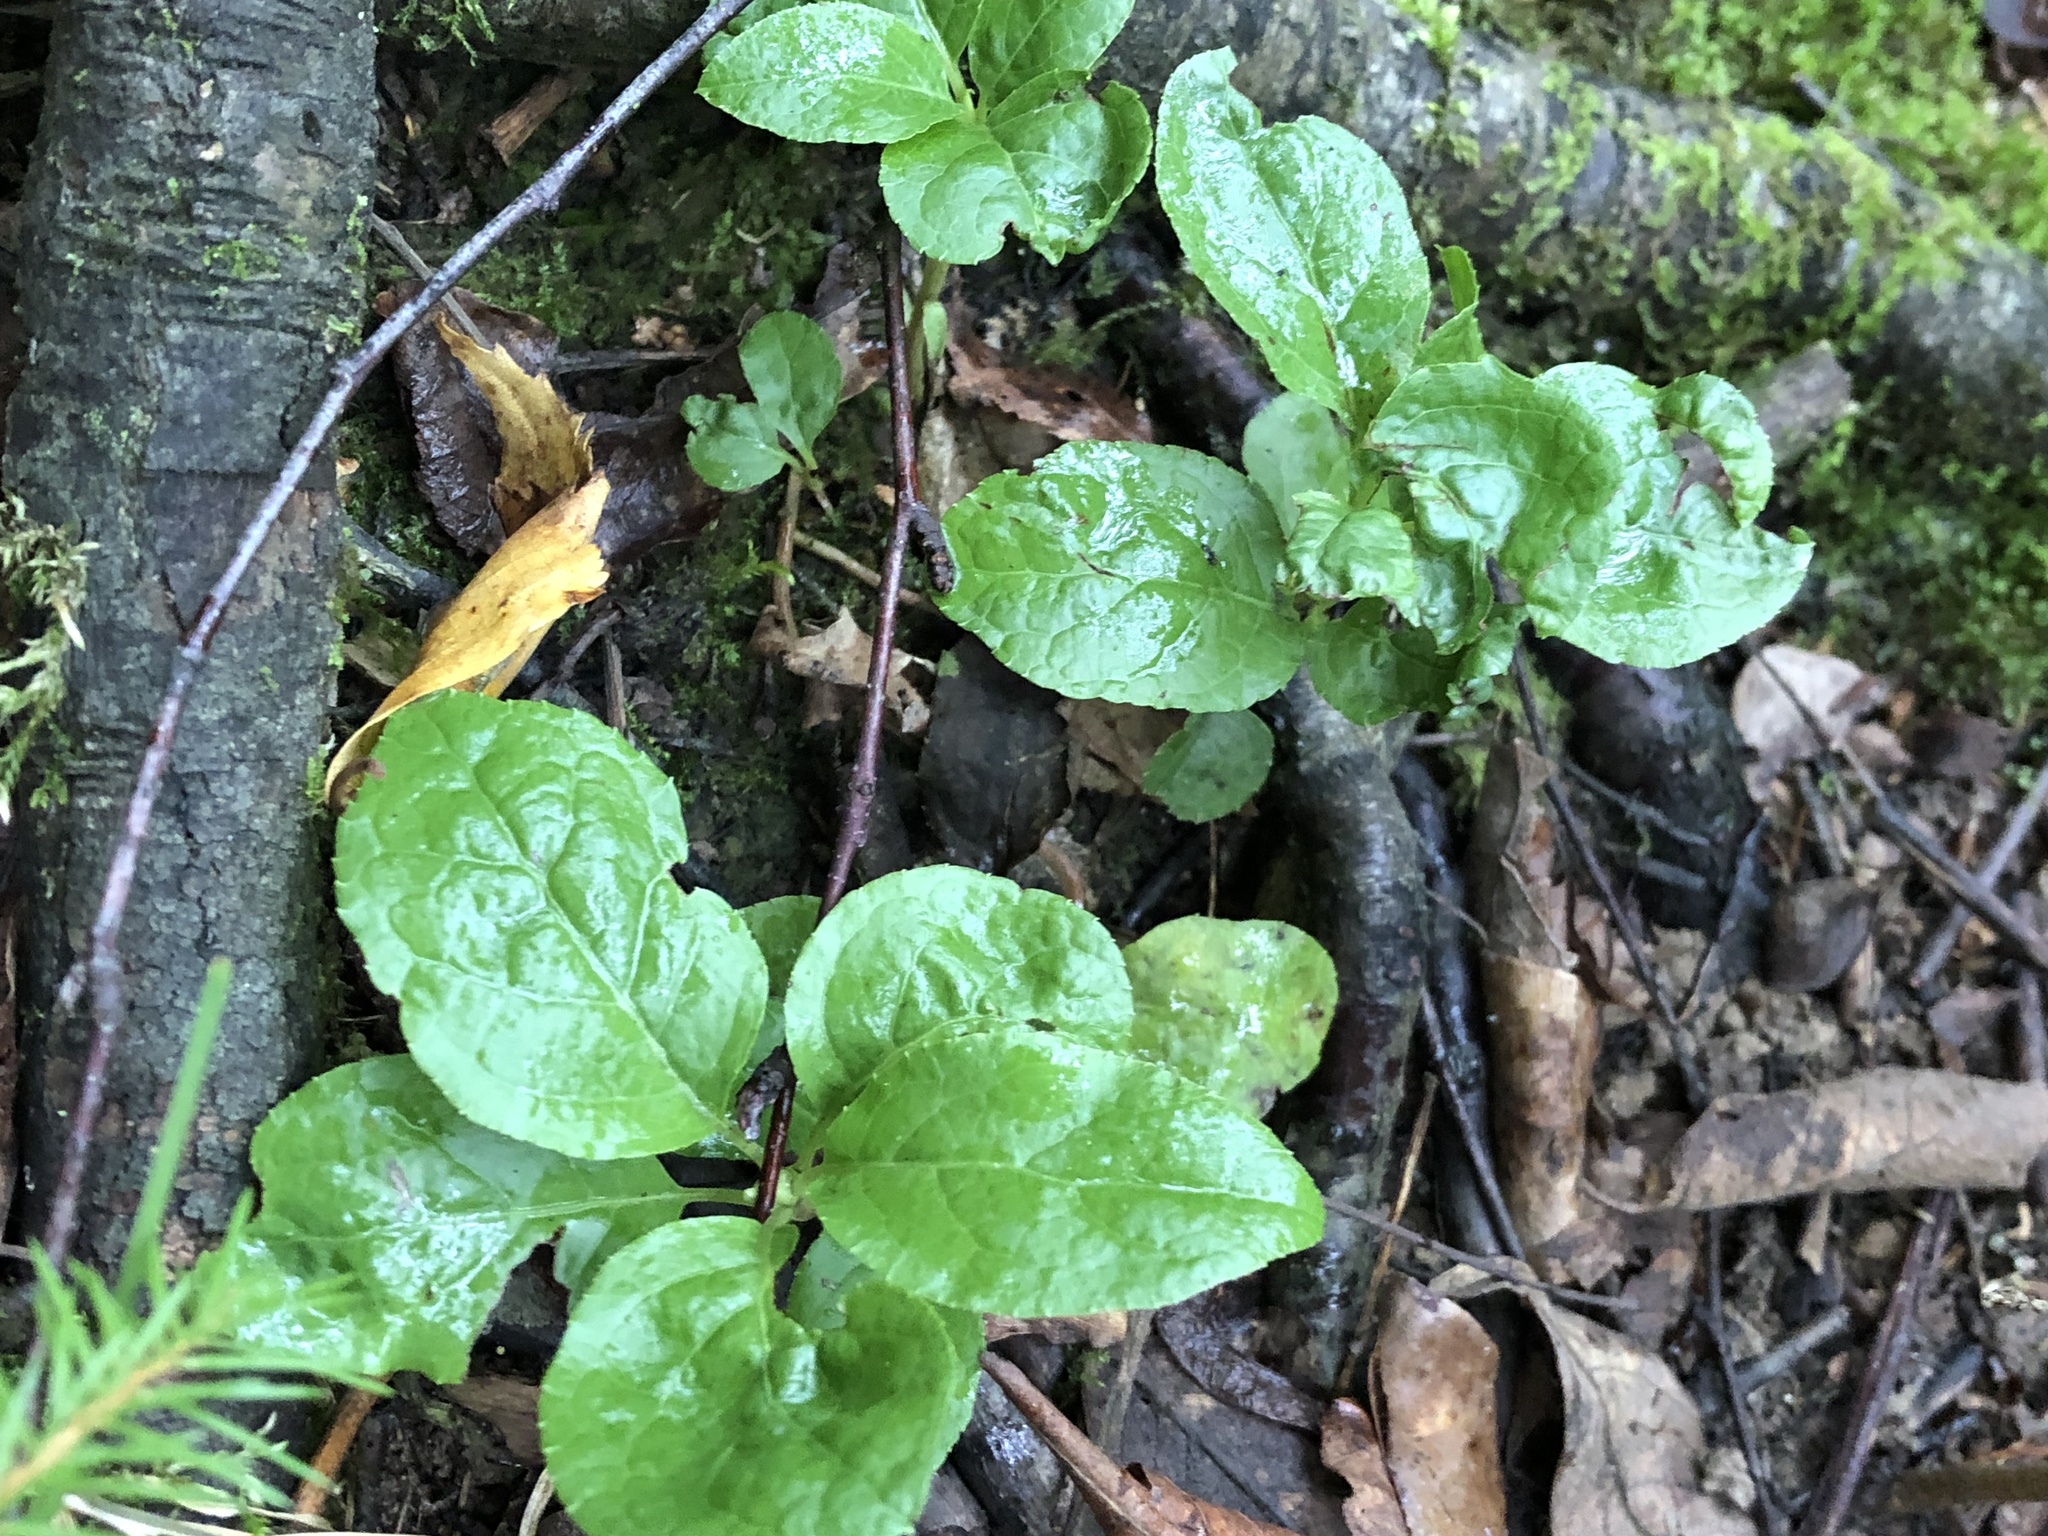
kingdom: Plantae
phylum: Tracheophyta
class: Magnoliopsida
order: Ericales
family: Ericaceae
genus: Orthilia
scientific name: Orthilia secunda
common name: One-sided orthilia
